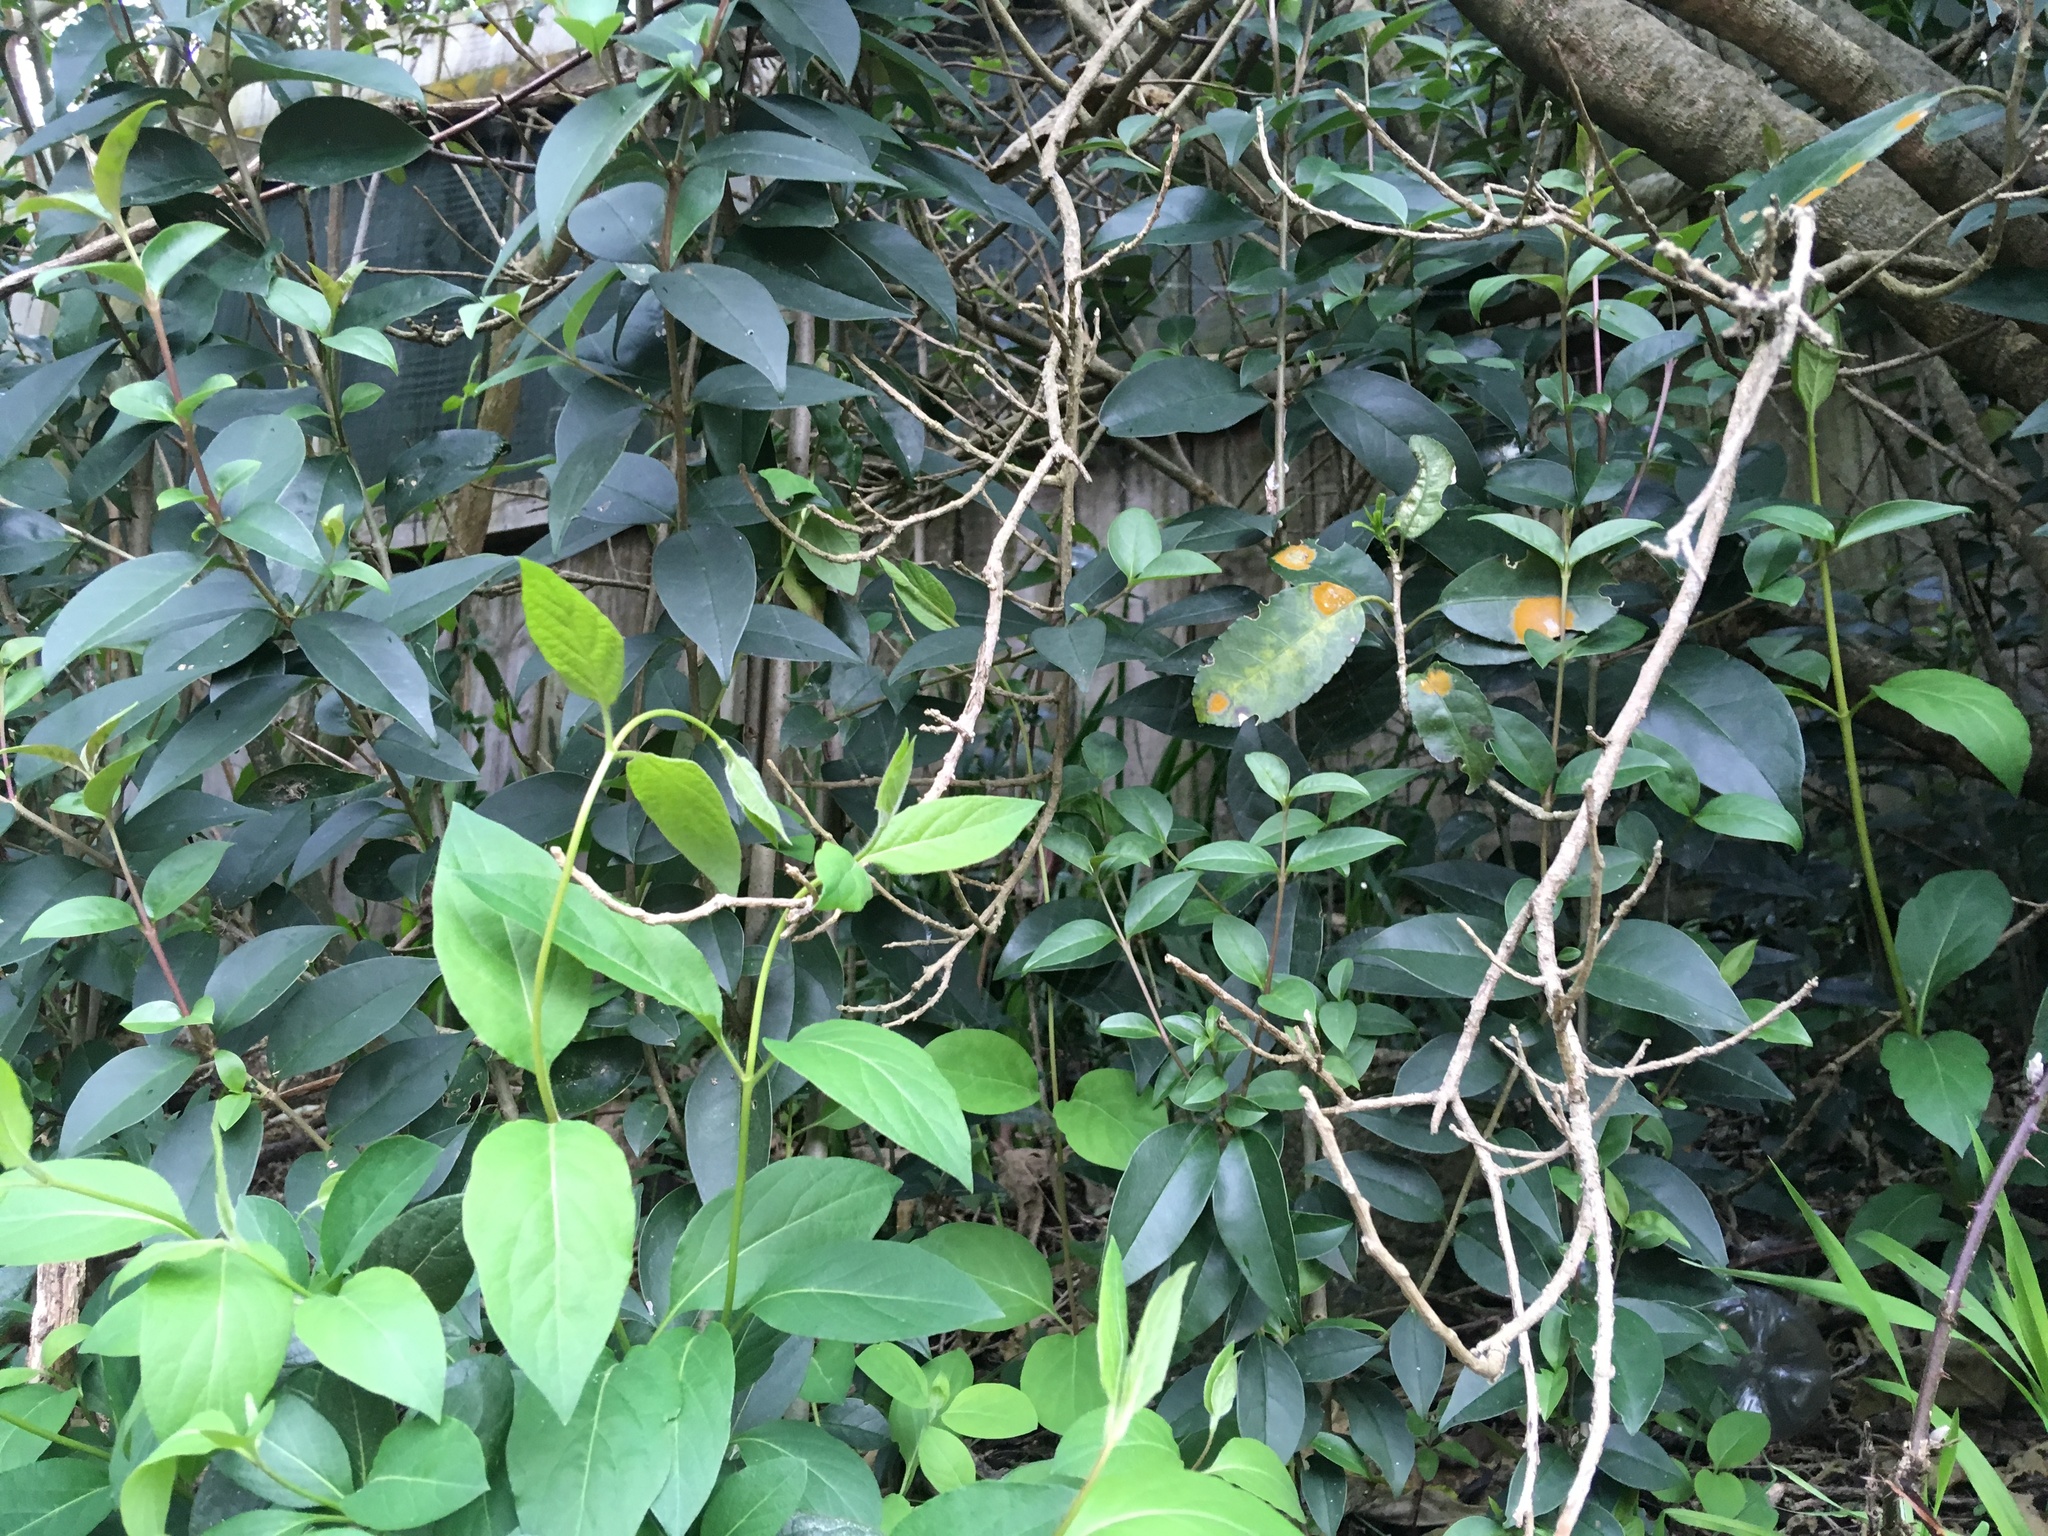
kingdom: Plantae
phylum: Tracheophyta
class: Magnoliopsida
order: Dipsacales
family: Caprifoliaceae
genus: Lonicera
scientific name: Lonicera japonica
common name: Japanese honeysuckle
